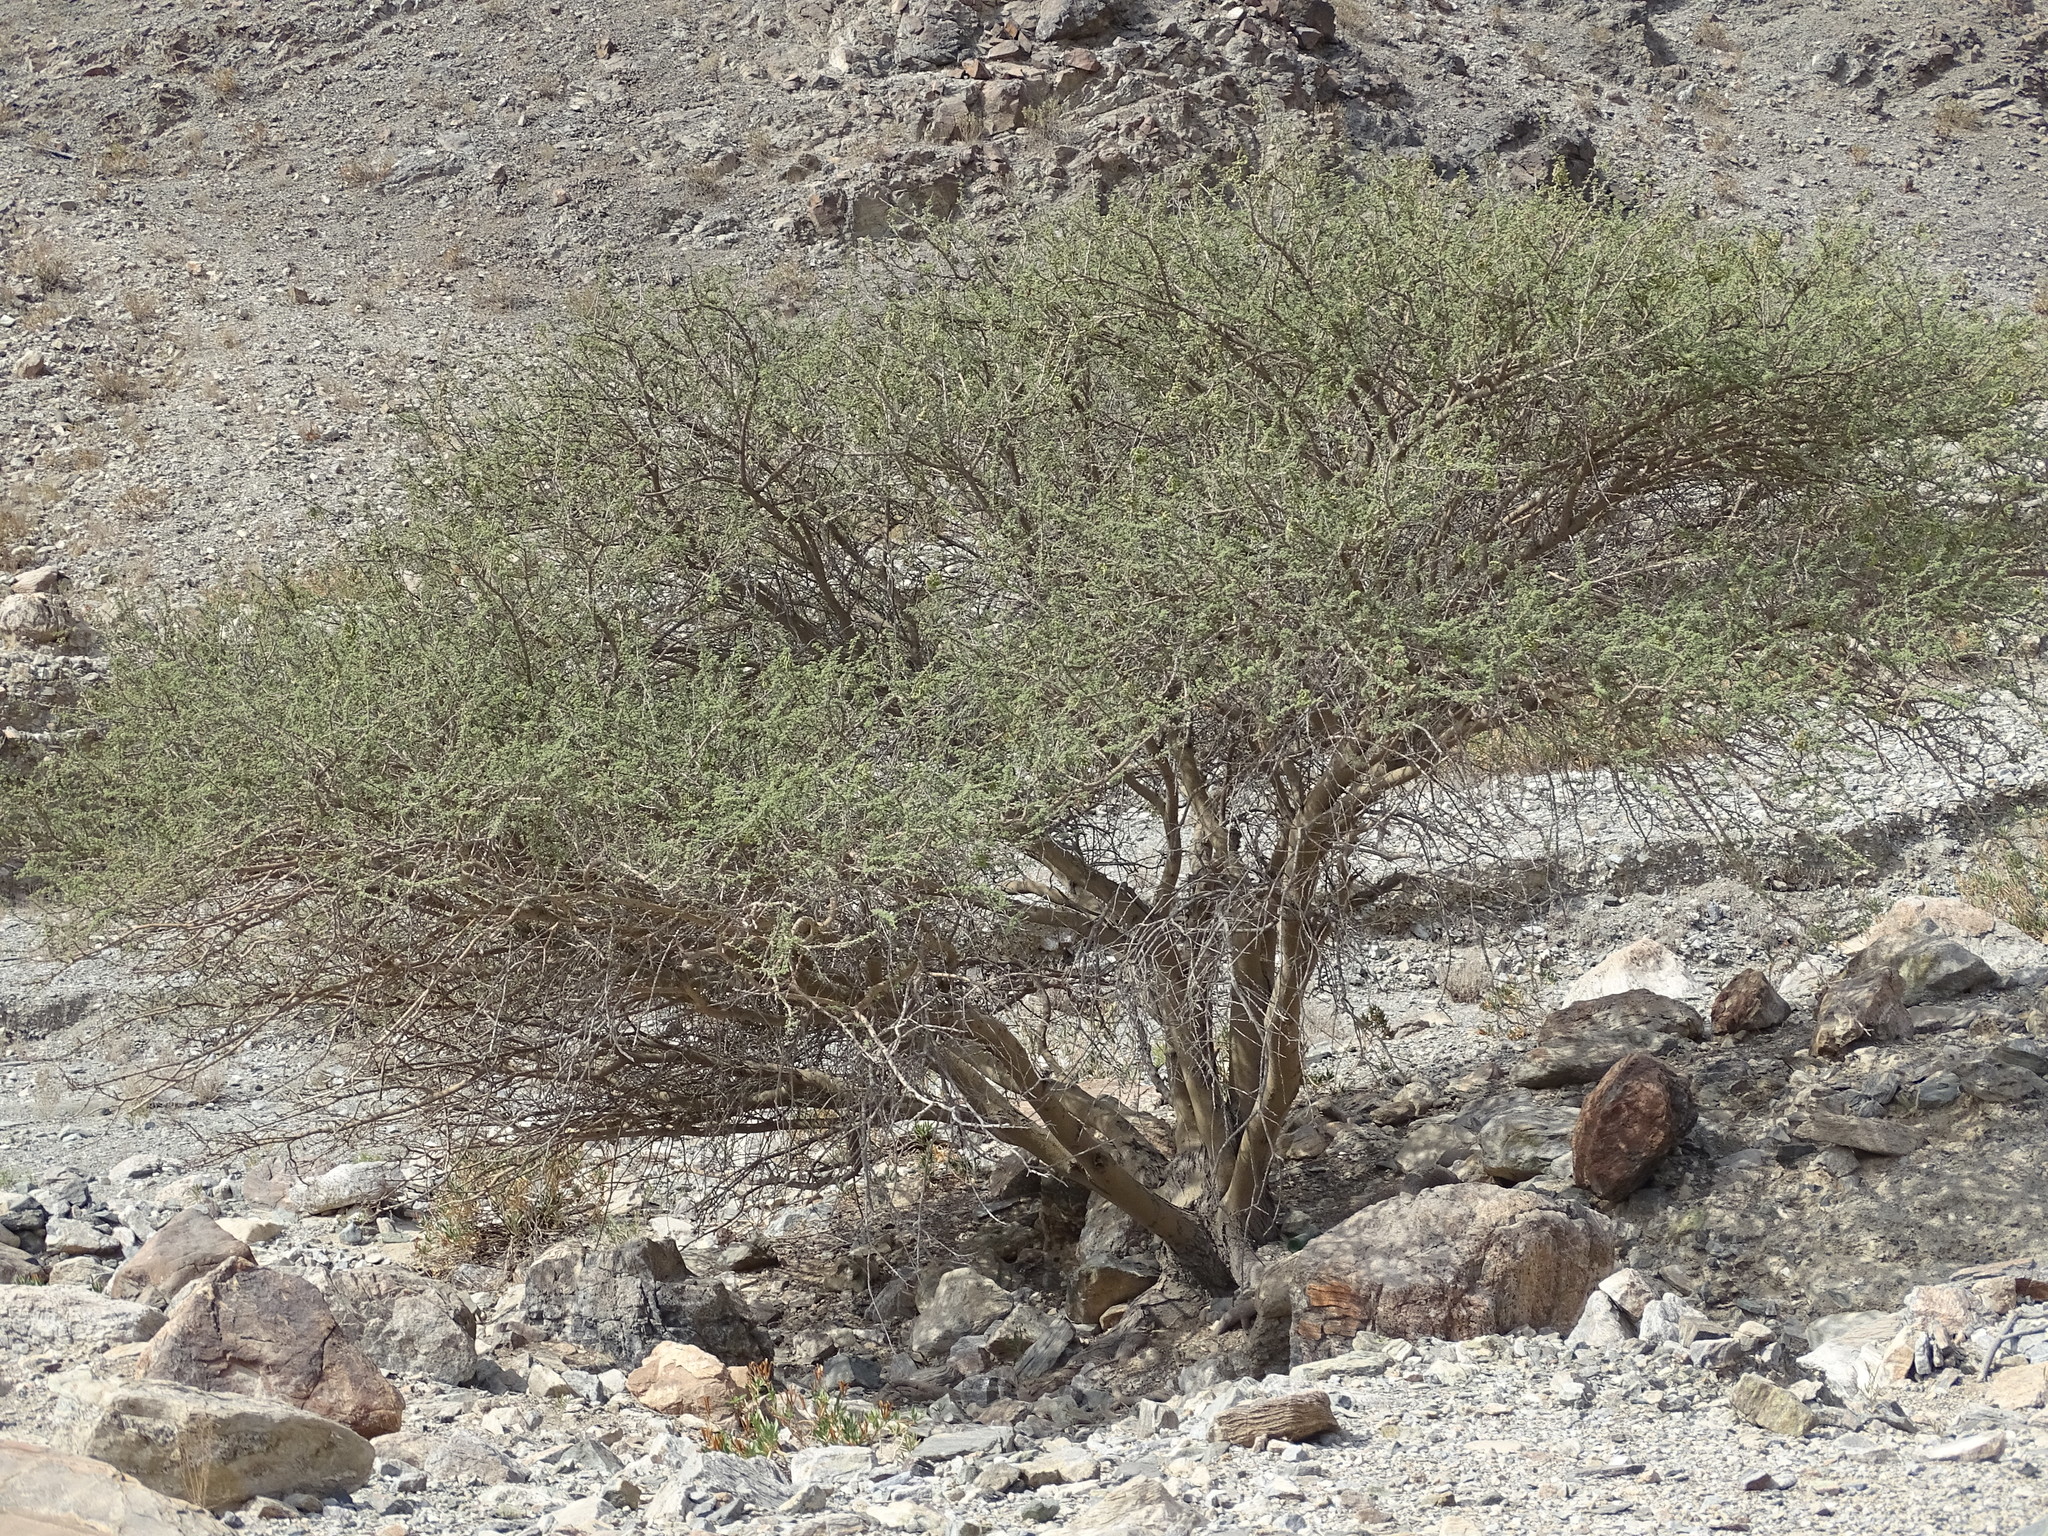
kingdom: Plantae
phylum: Tracheophyta
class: Magnoliopsida
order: Fabales
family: Fabaceae
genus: Vachellia
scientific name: Vachellia tortilis
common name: Umbrella thorn acacia
